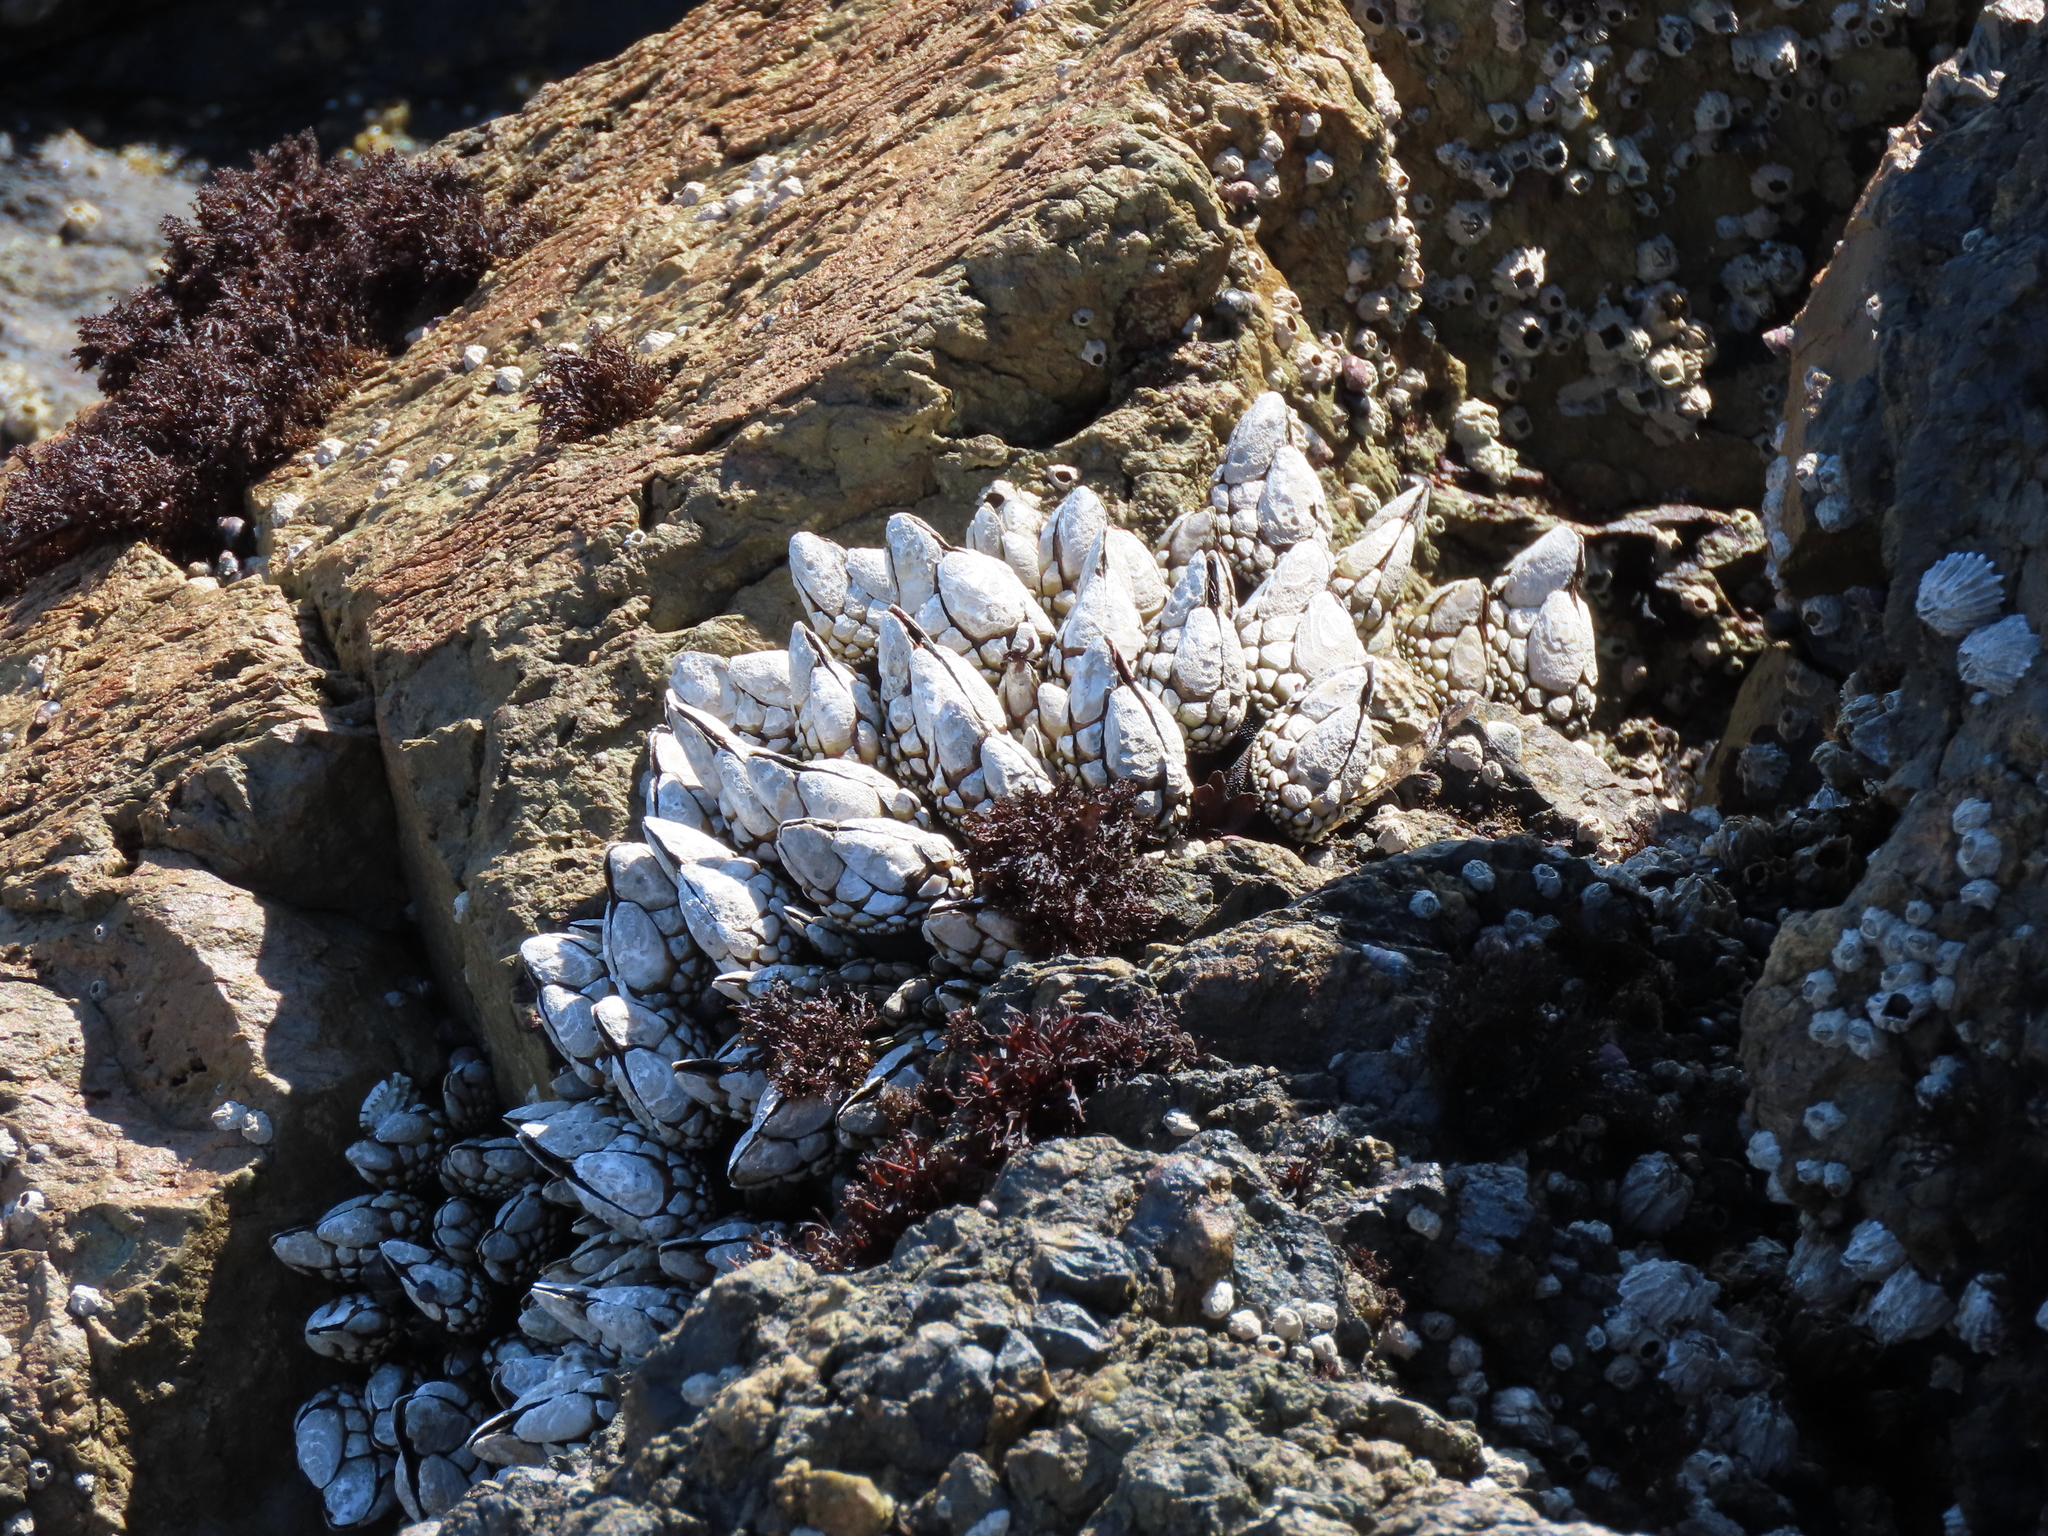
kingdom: Animalia
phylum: Arthropoda
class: Maxillopoda
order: Pedunculata
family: Pollicipedidae
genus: Pollicipes
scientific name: Pollicipes polymerus
